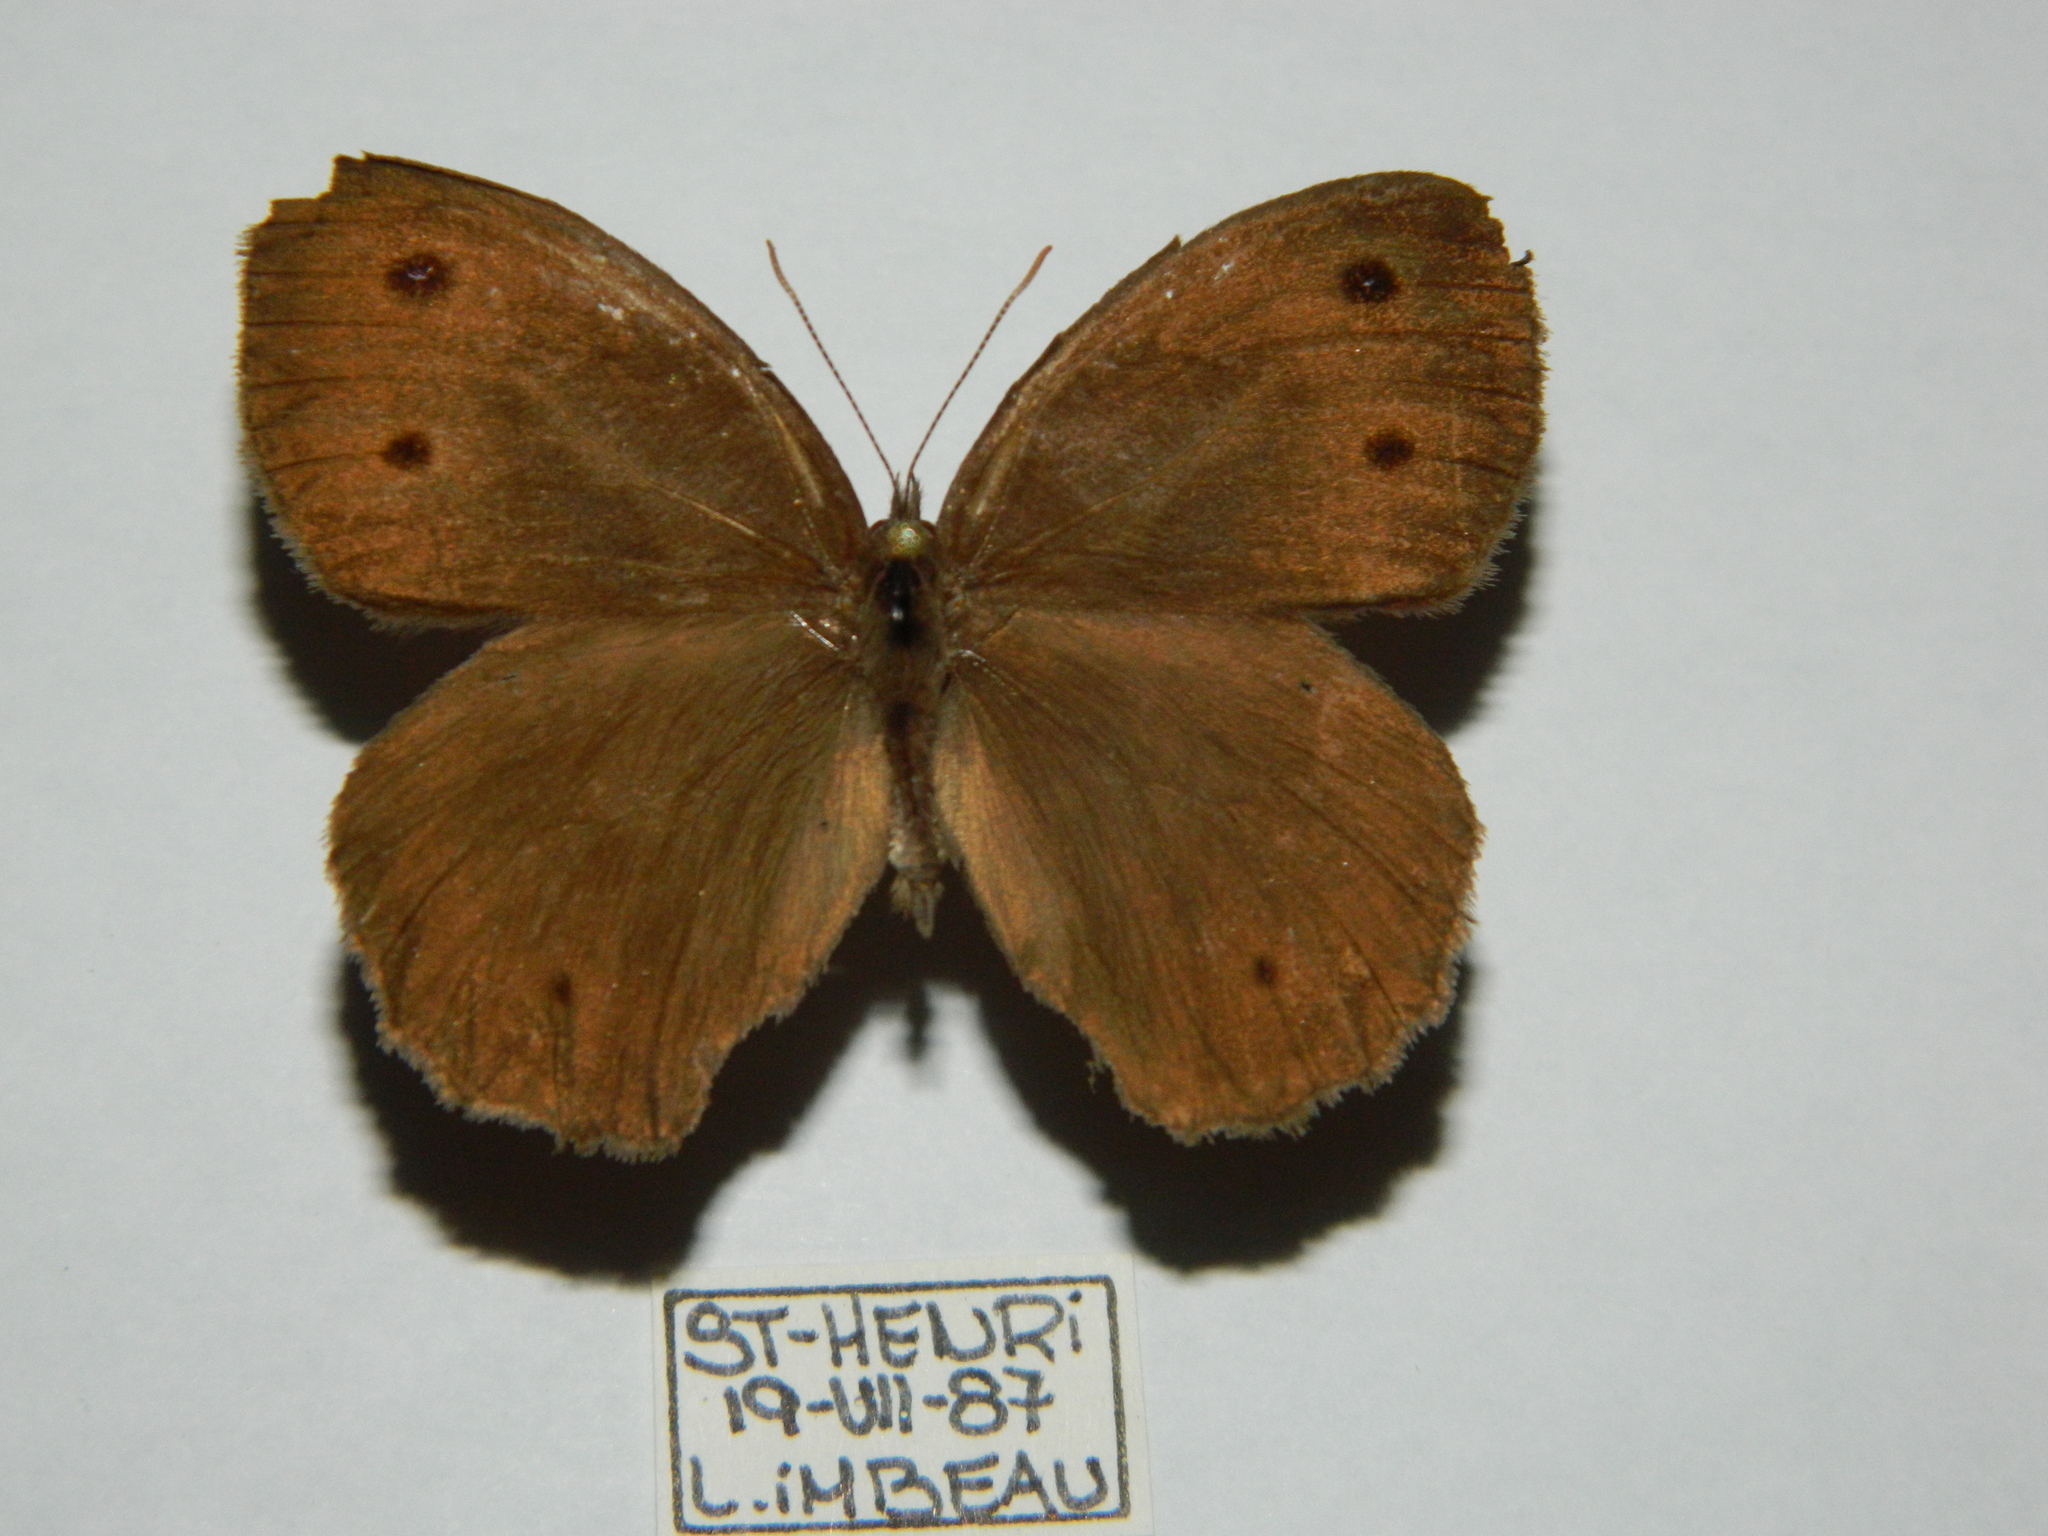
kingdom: Animalia
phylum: Arthropoda
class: Insecta
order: Lepidoptera
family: Nymphalidae
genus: Cercyonis
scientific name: Cercyonis pegala
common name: Common wood-nymph
